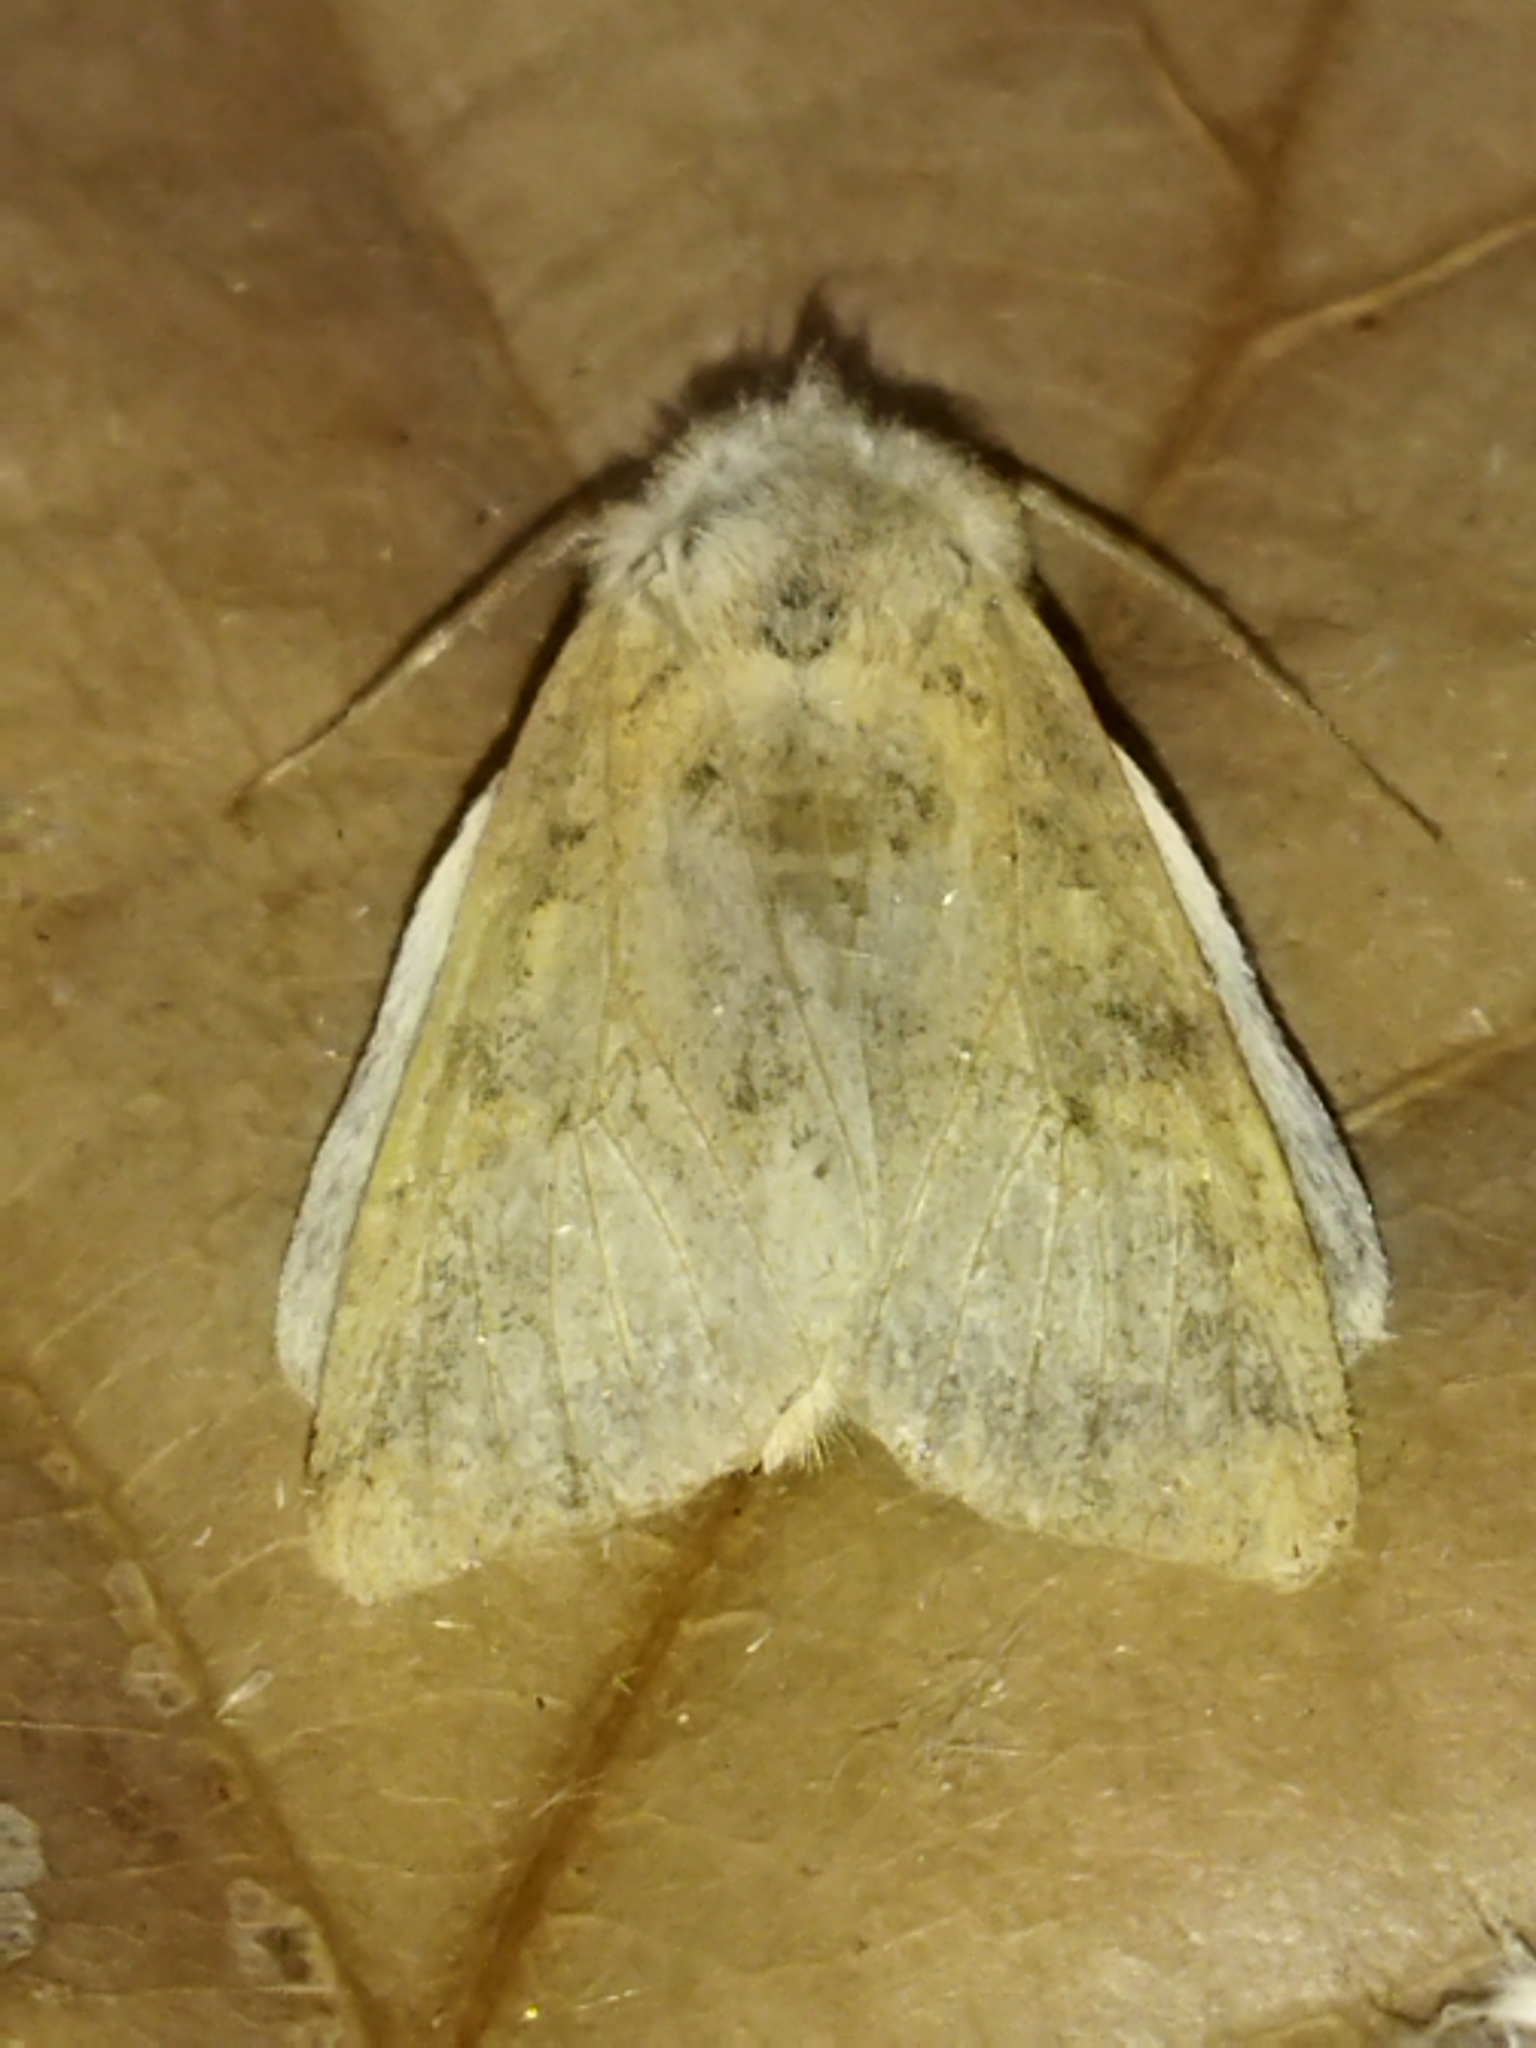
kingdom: Animalia
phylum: Arthropoda
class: Insecta
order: Lepidoptera
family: Noctuidae
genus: Xanthia
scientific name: Xanthia gilvago
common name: Dusky-lemon sallow
